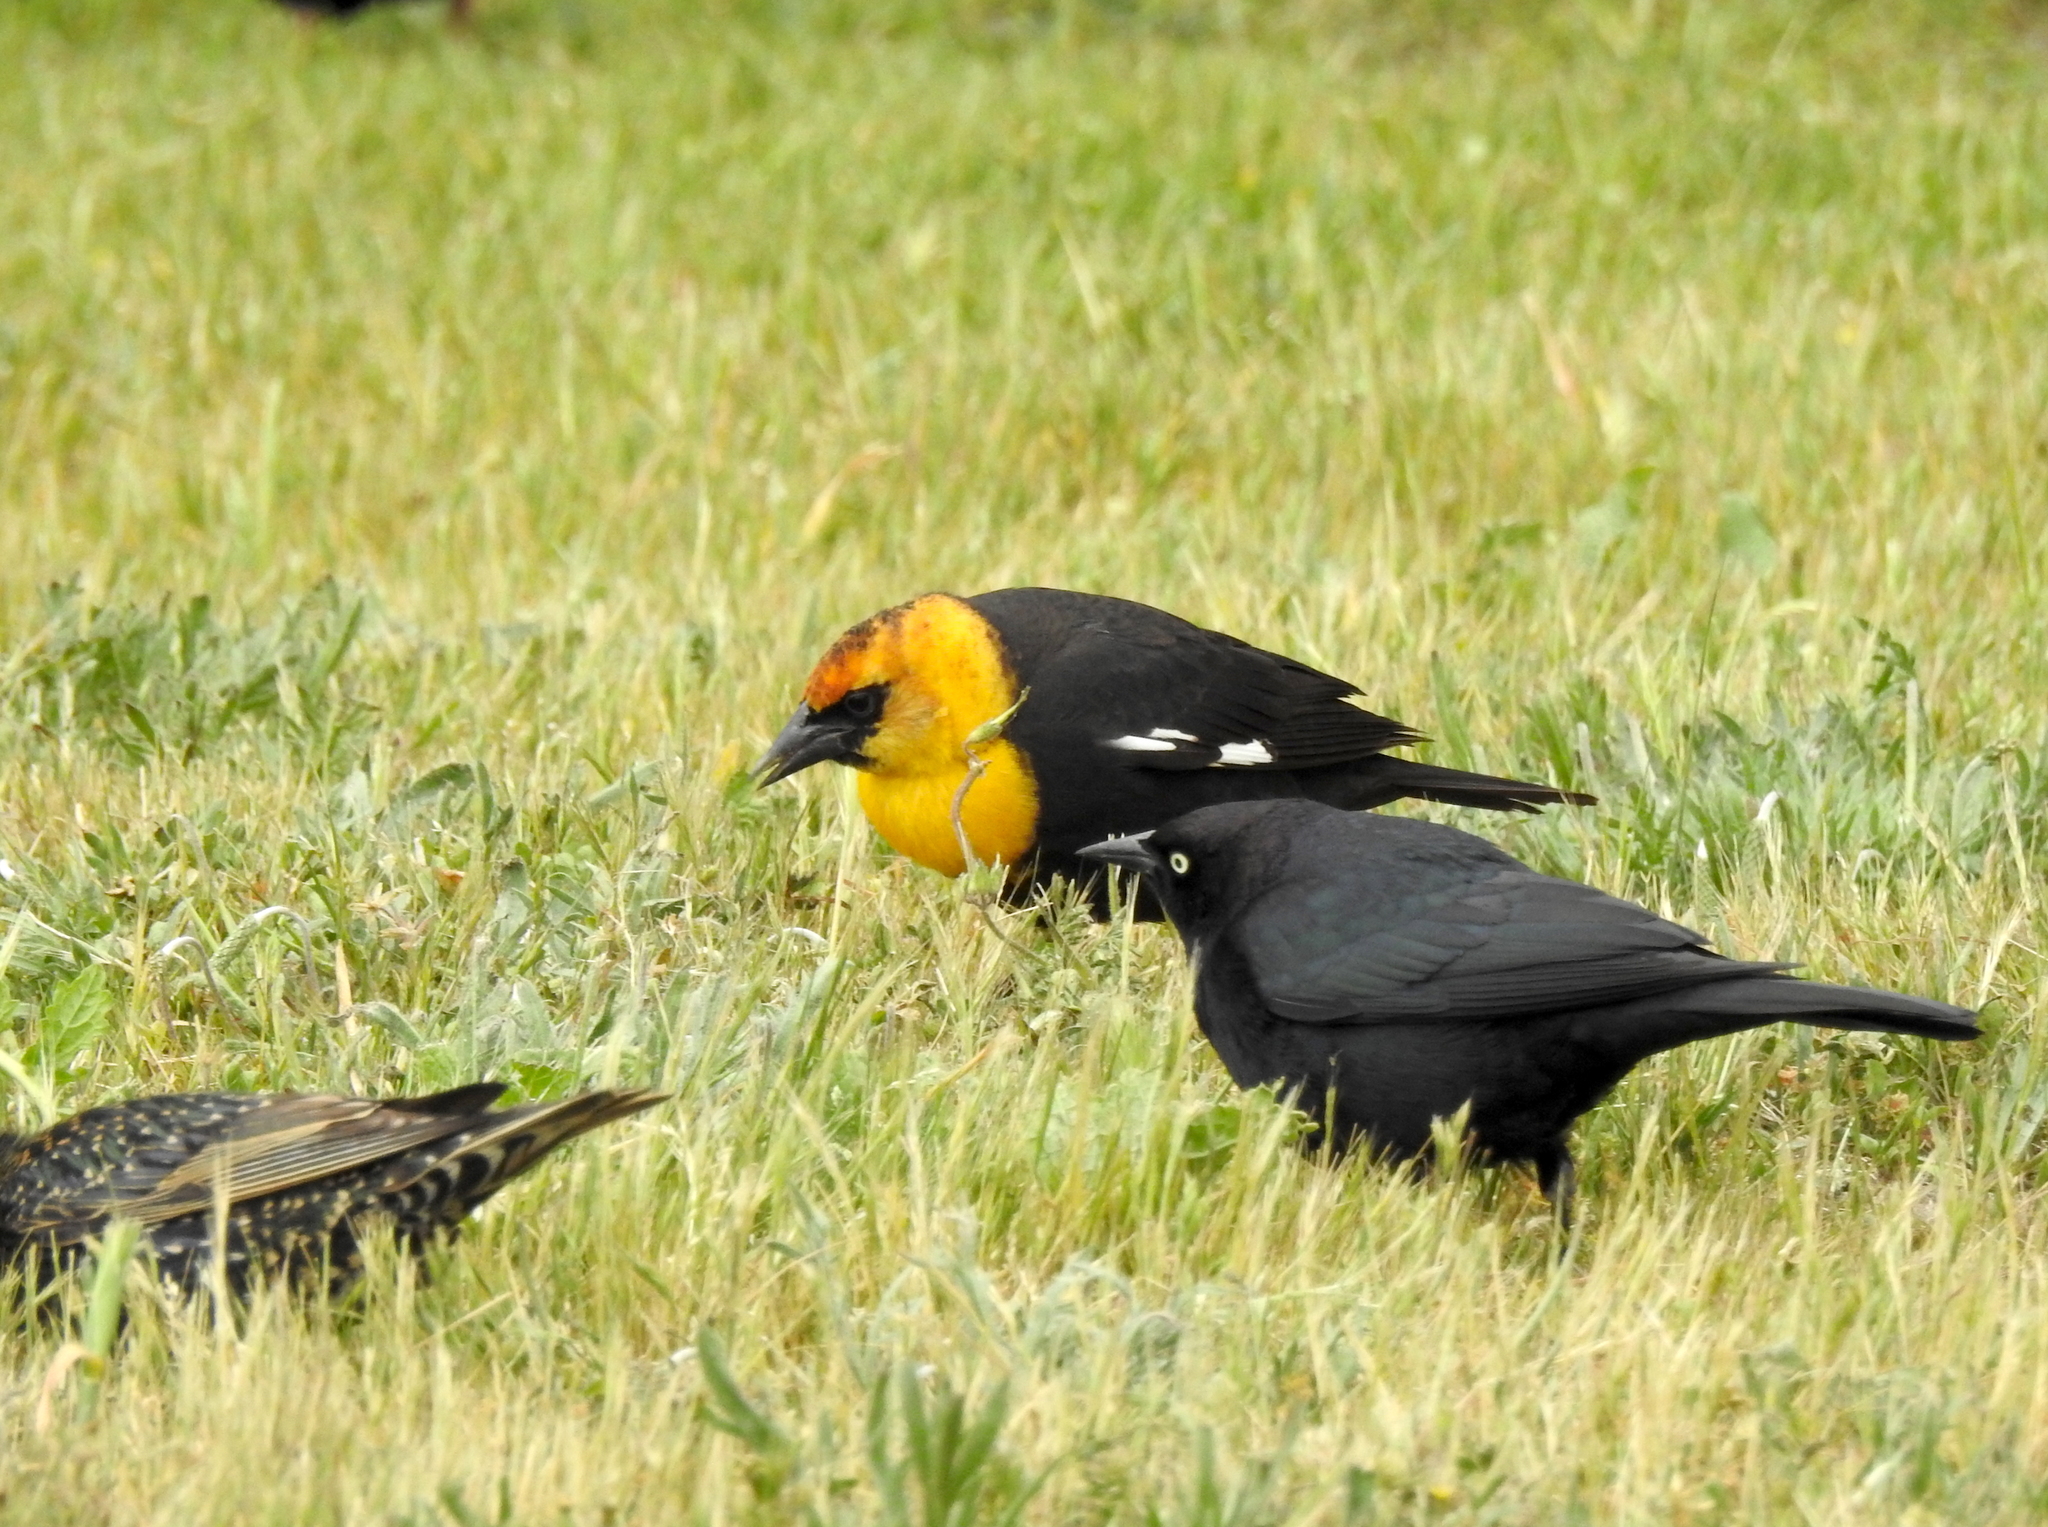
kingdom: Animalia
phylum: Chordata
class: Aves
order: Passeriformes
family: Icteridae
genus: Euphagus
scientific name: Euphagus cyanocephalus
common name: Brewer's blackbird
